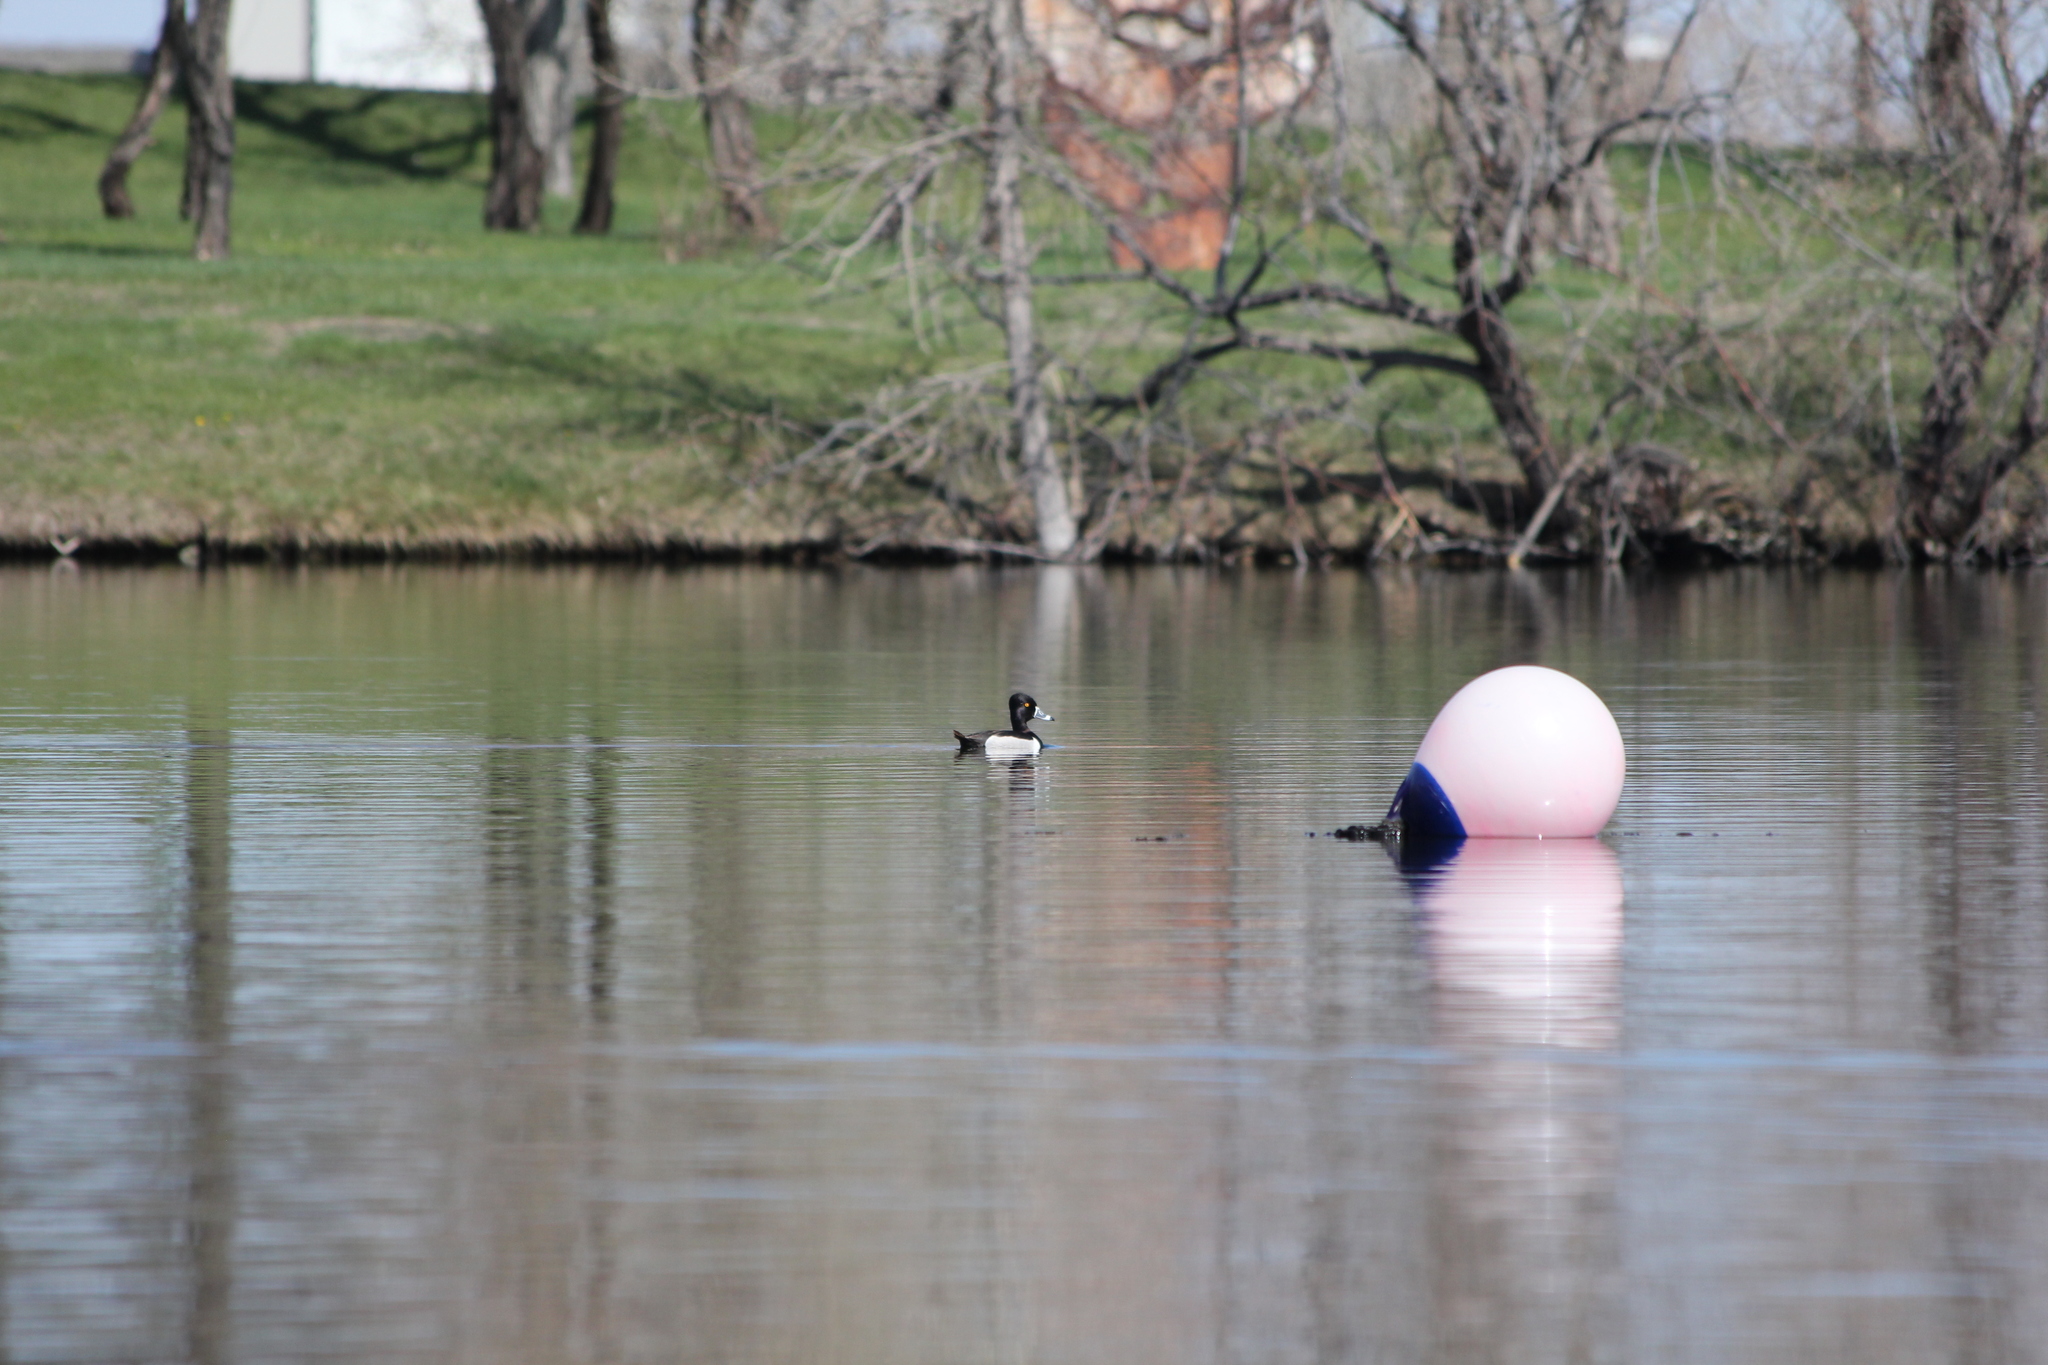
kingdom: Animalia
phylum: Chordata
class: Aves
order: Anseriformes
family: Anatidae
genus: Aythya
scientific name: Aythya collaris
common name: Ring-necked duck
